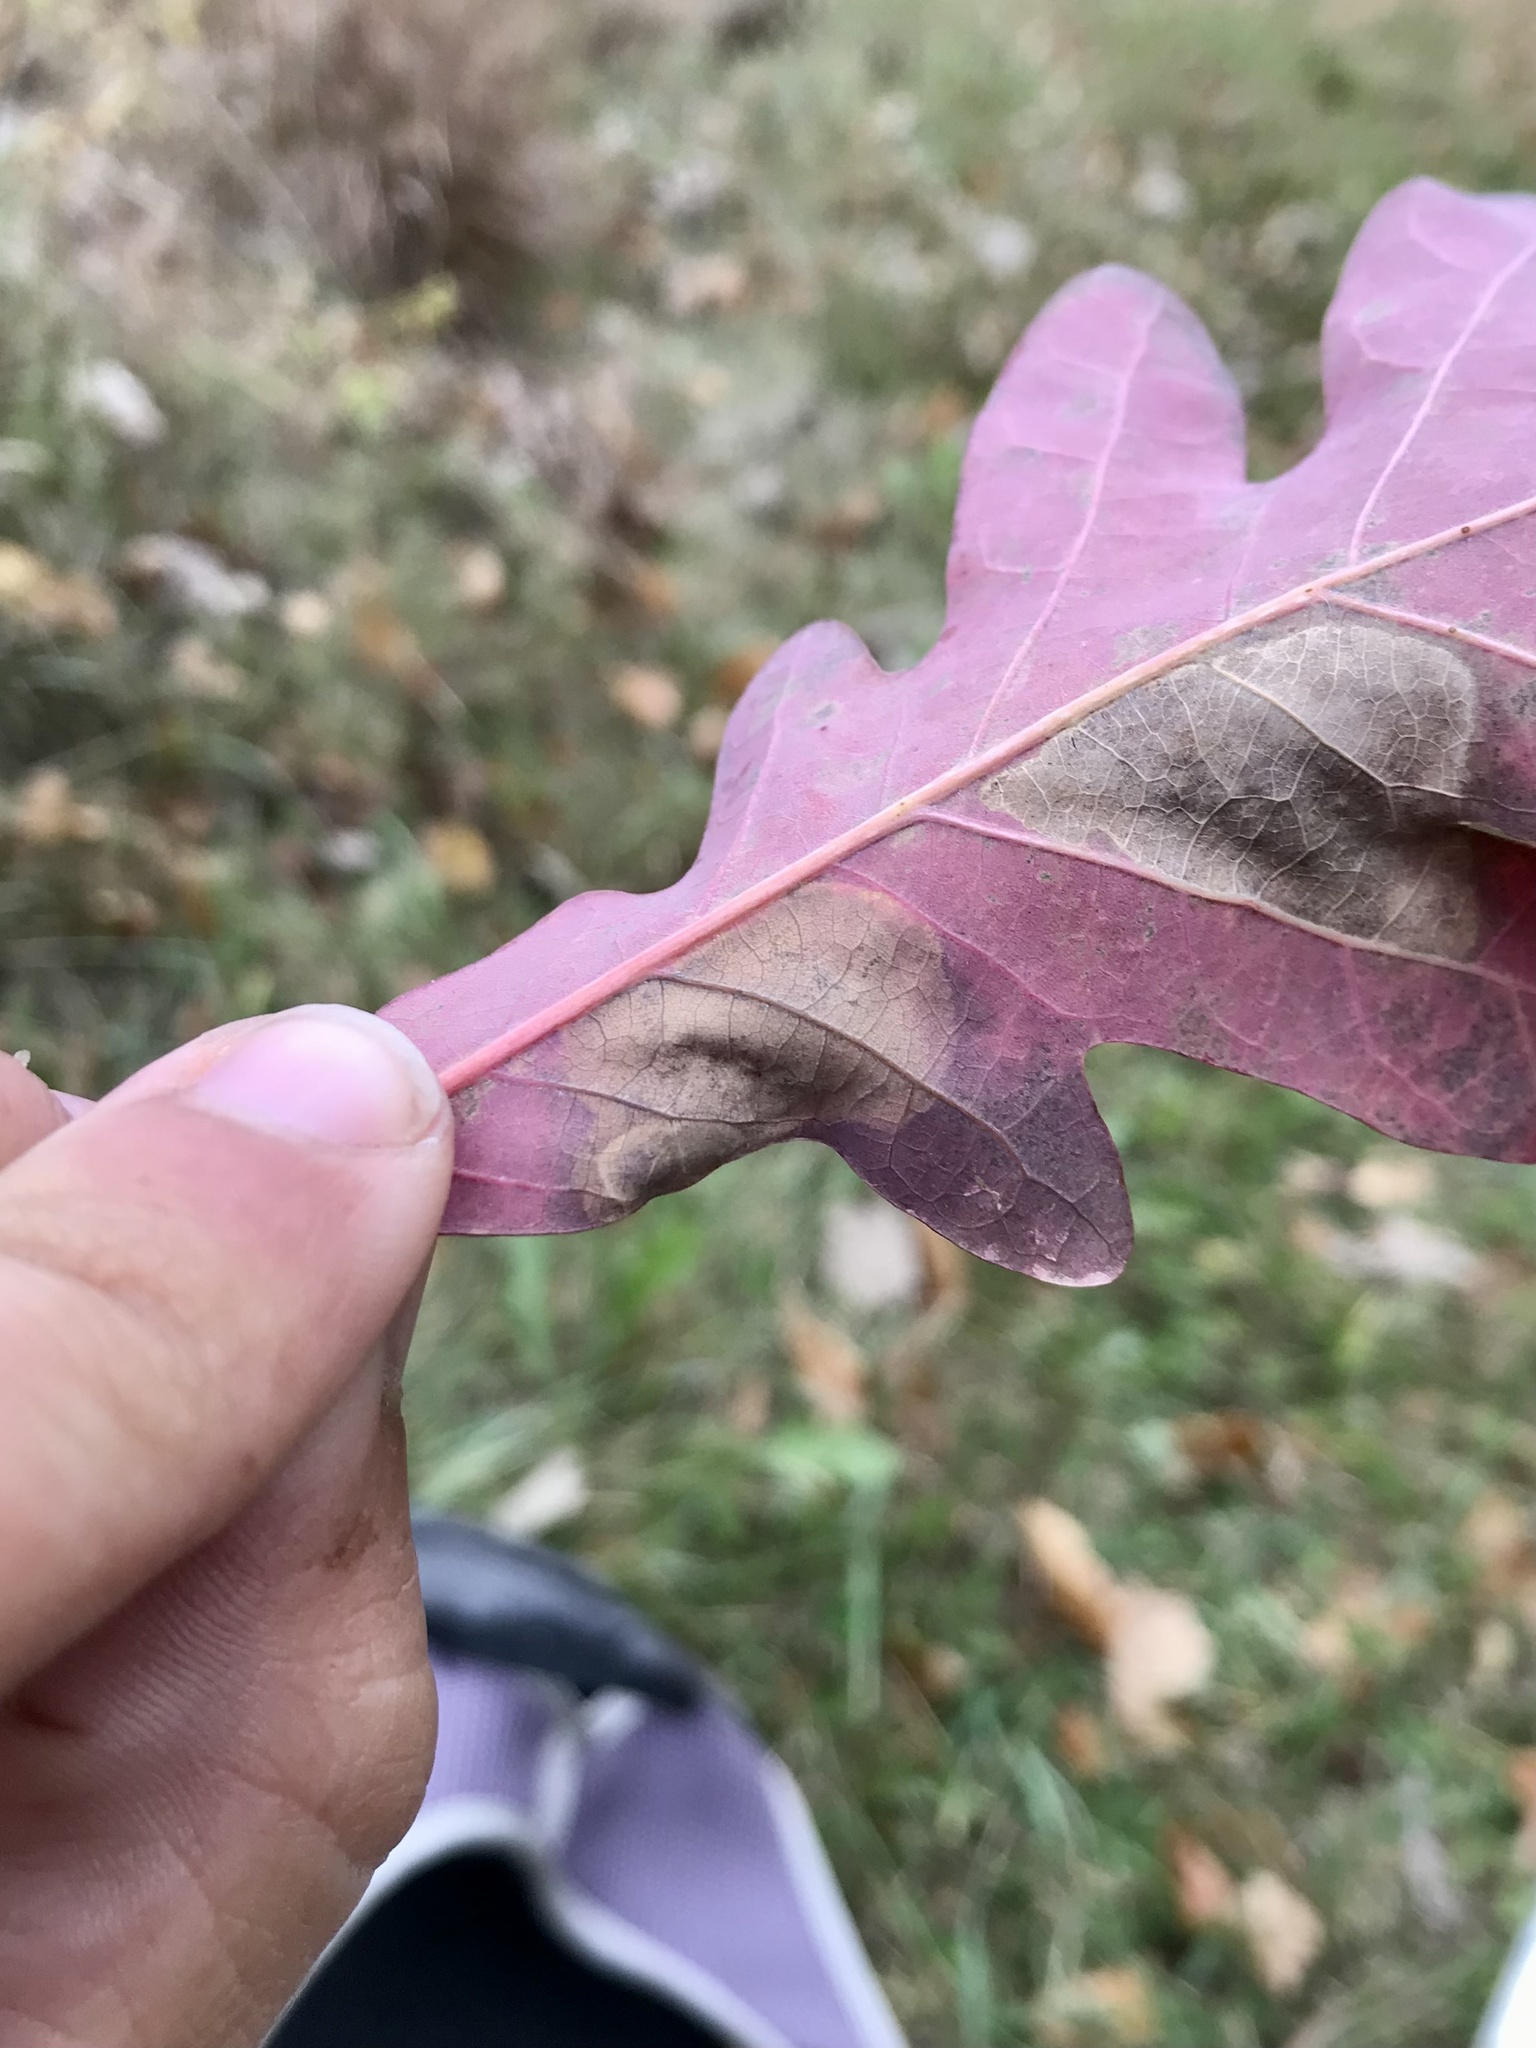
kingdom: Animalia
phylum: Arthropoda
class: Insecta
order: Lepidoptera
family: Gracillariidae
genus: Cameraria
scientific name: Cameraria
